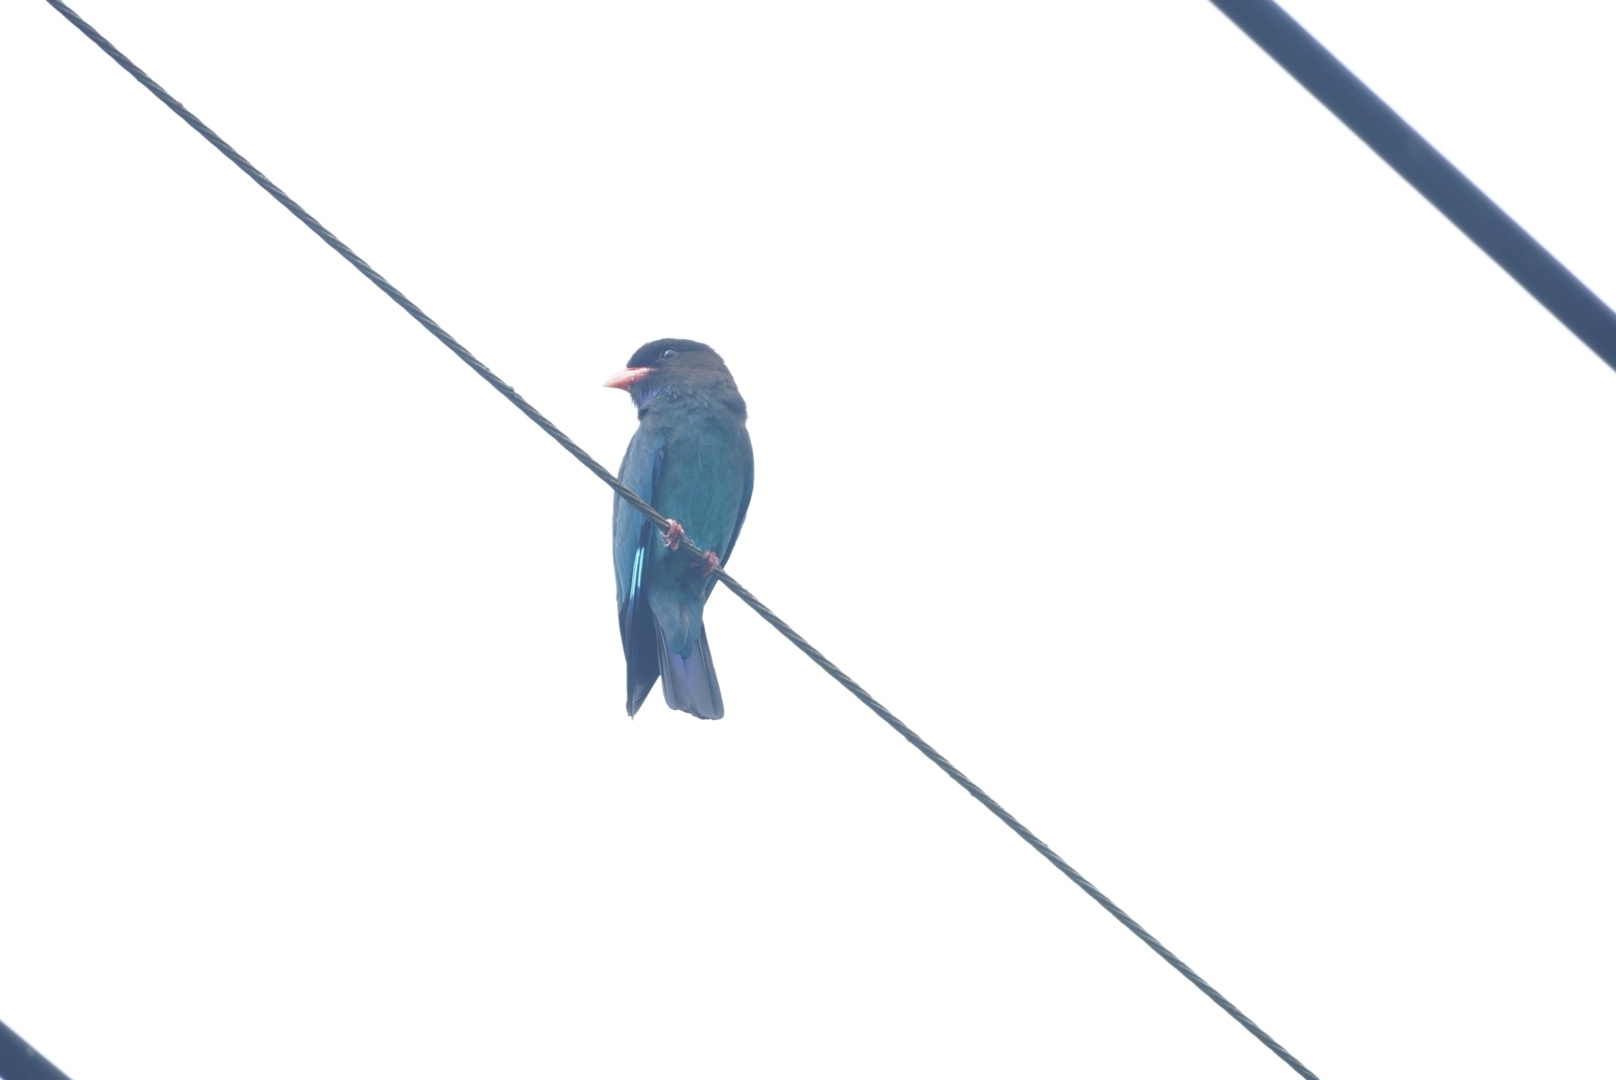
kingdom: Animalia
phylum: Chordata
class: Aves
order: Coraciiformes
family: Coraciidae
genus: Eurystomus
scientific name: Eurystomus orientalis
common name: Oriental dollarbird
